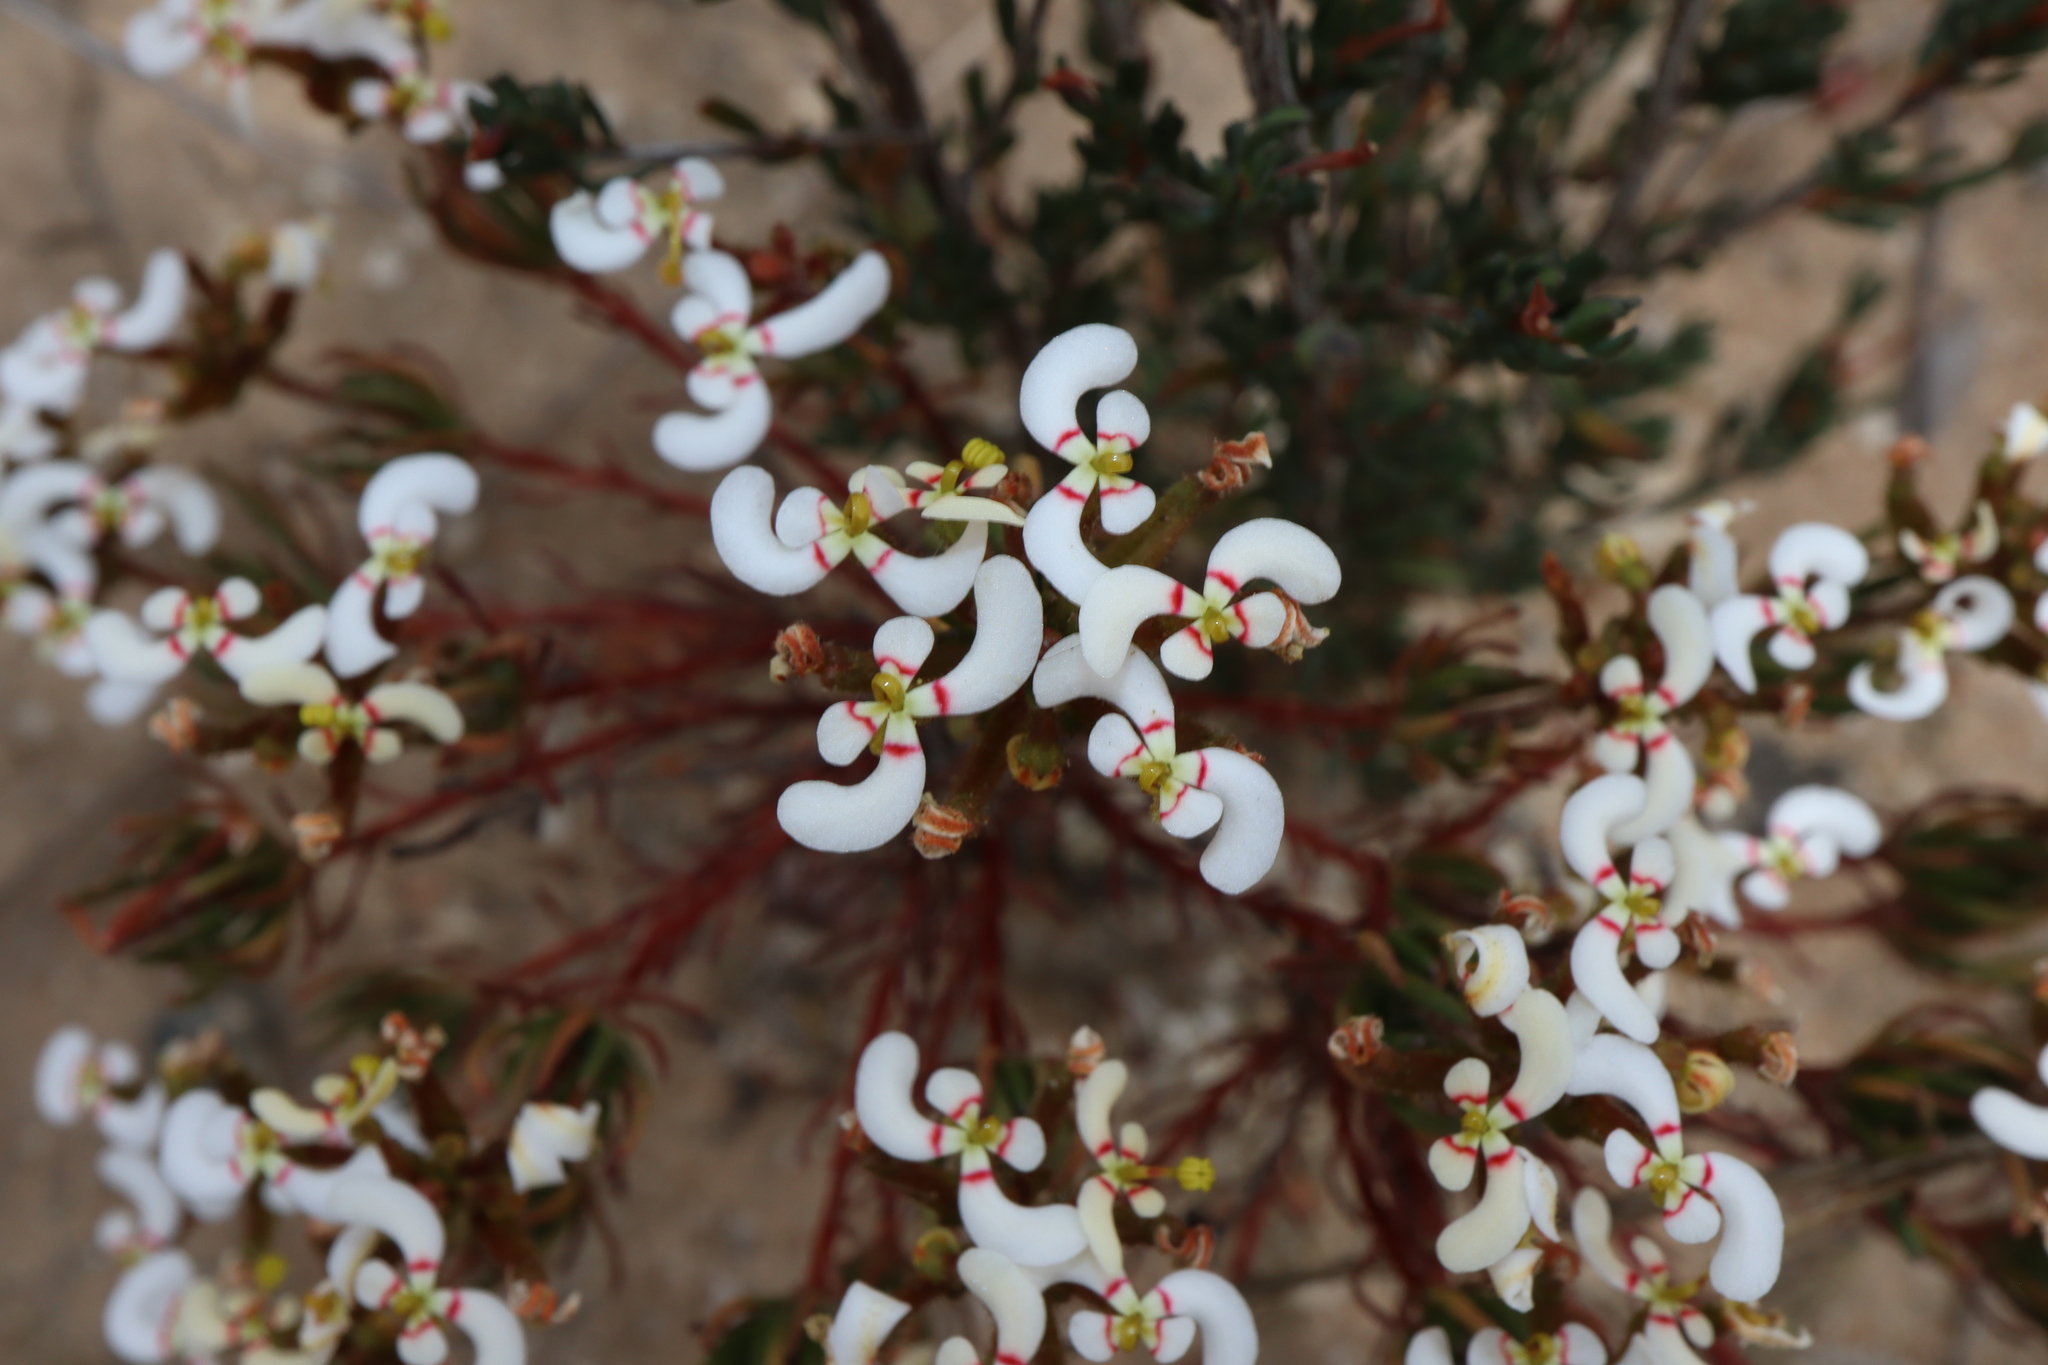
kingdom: Plantae
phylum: Tracheophyta
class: Magnoliopsida
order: Asterales
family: Stylidiaceae
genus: Stylidium
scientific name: Stylidium involucratum
